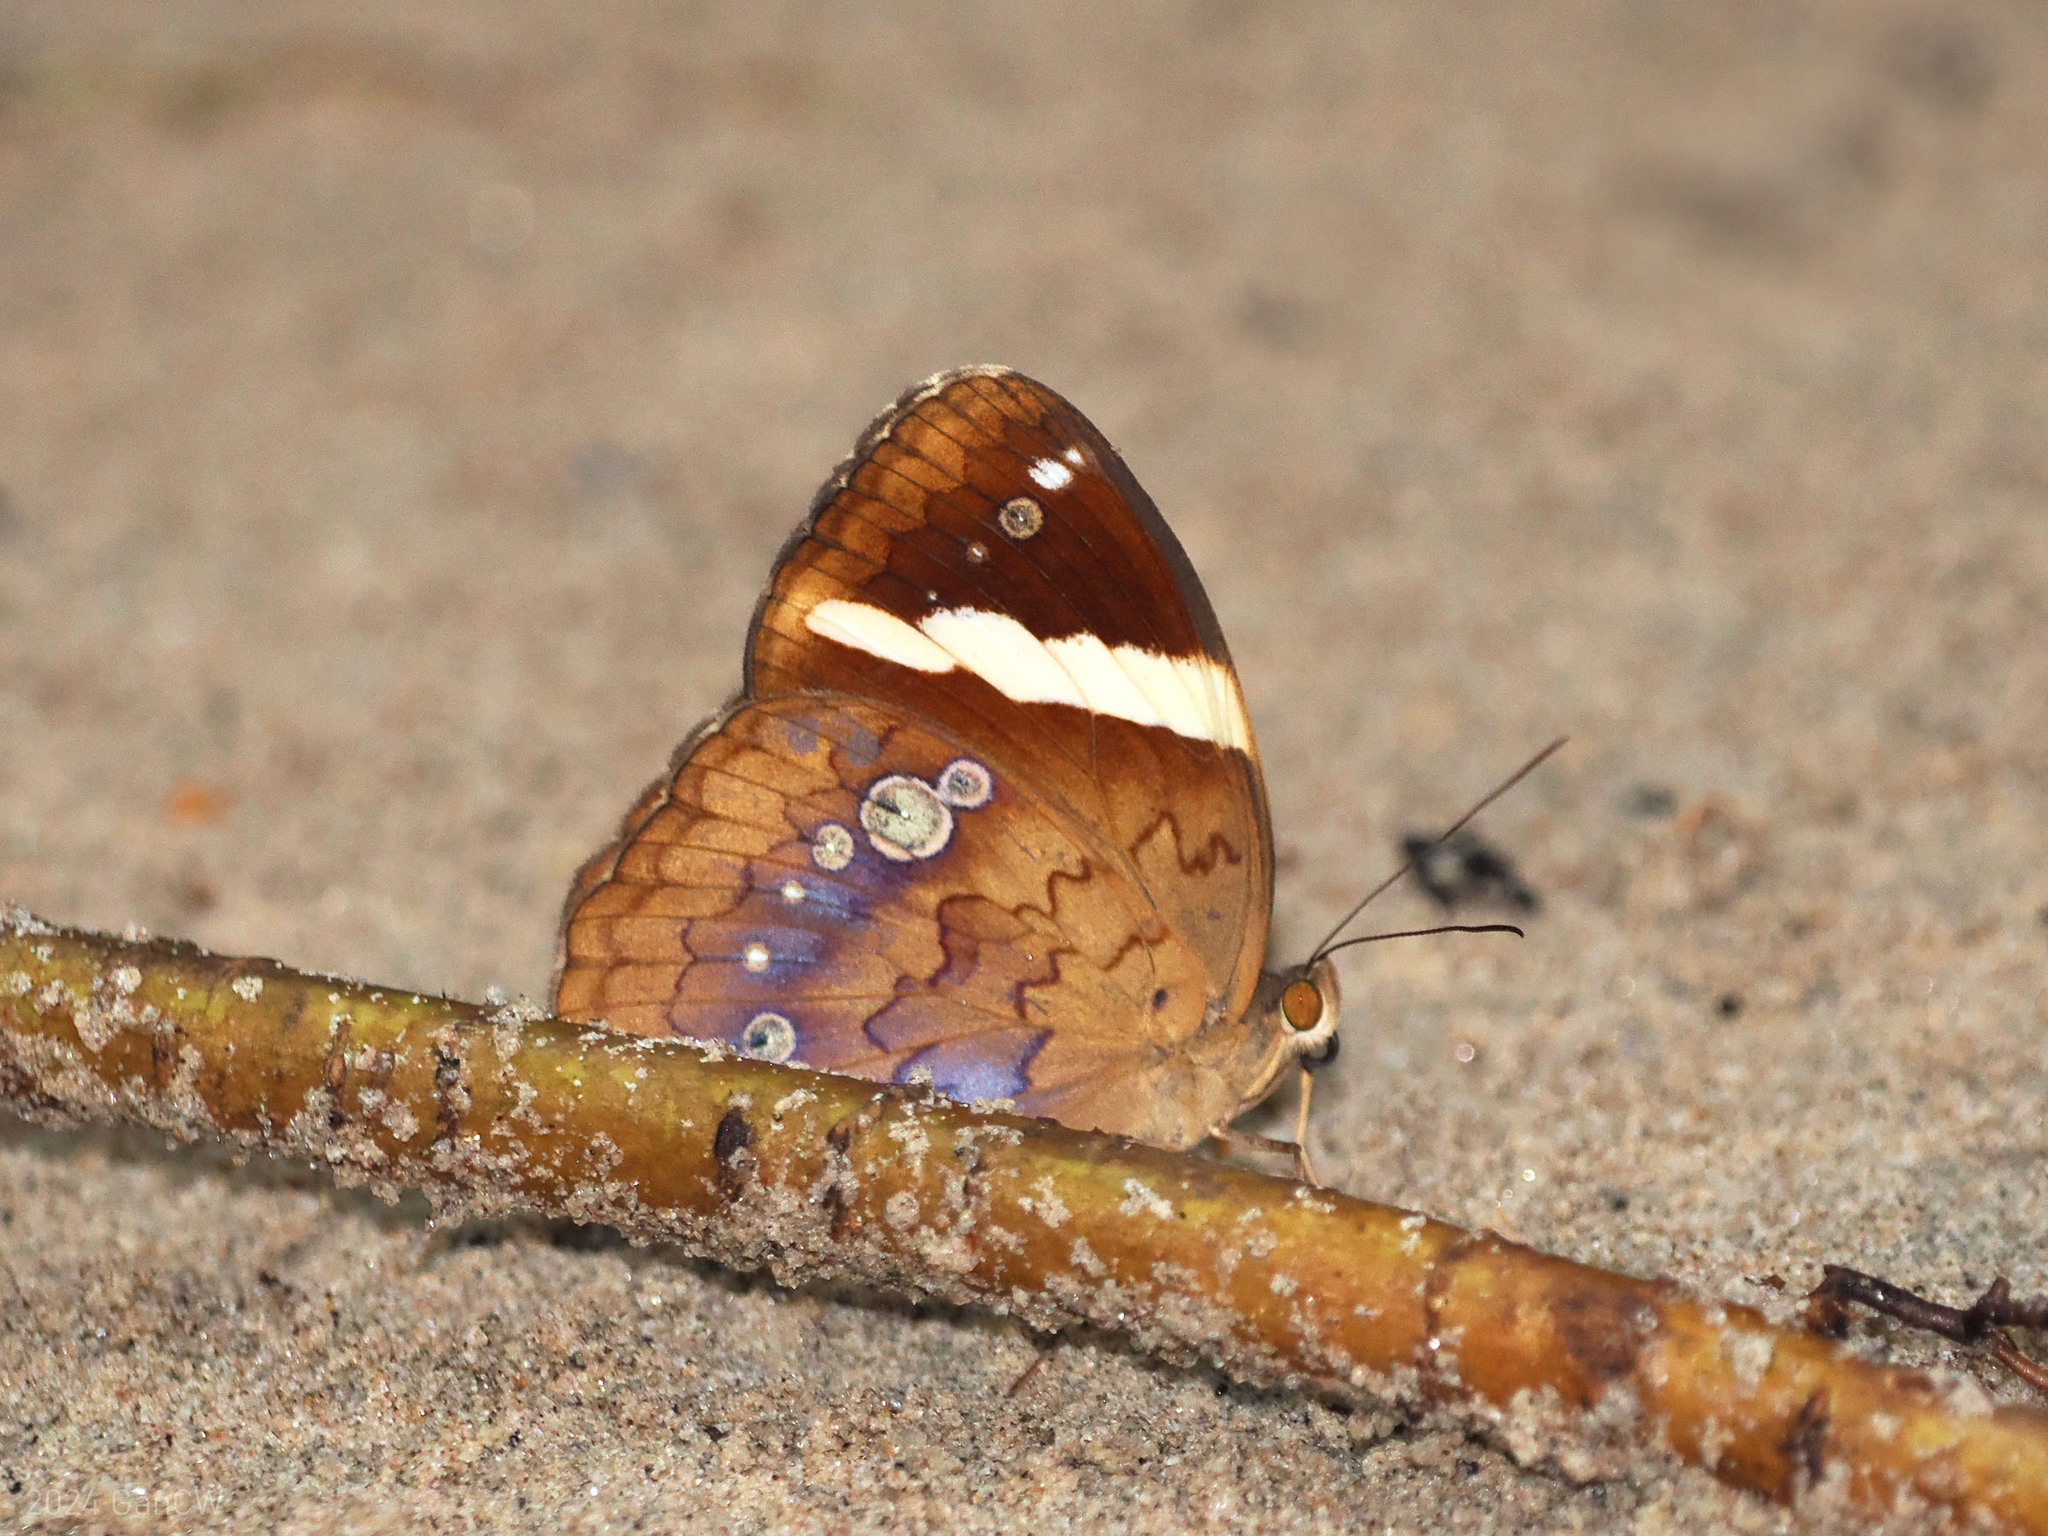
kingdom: Animalia
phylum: Arthropoda
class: Insecta
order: Lepidoptera
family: Nymphalidae
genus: Xanthotaenia
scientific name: Xanthotaenia busiris
